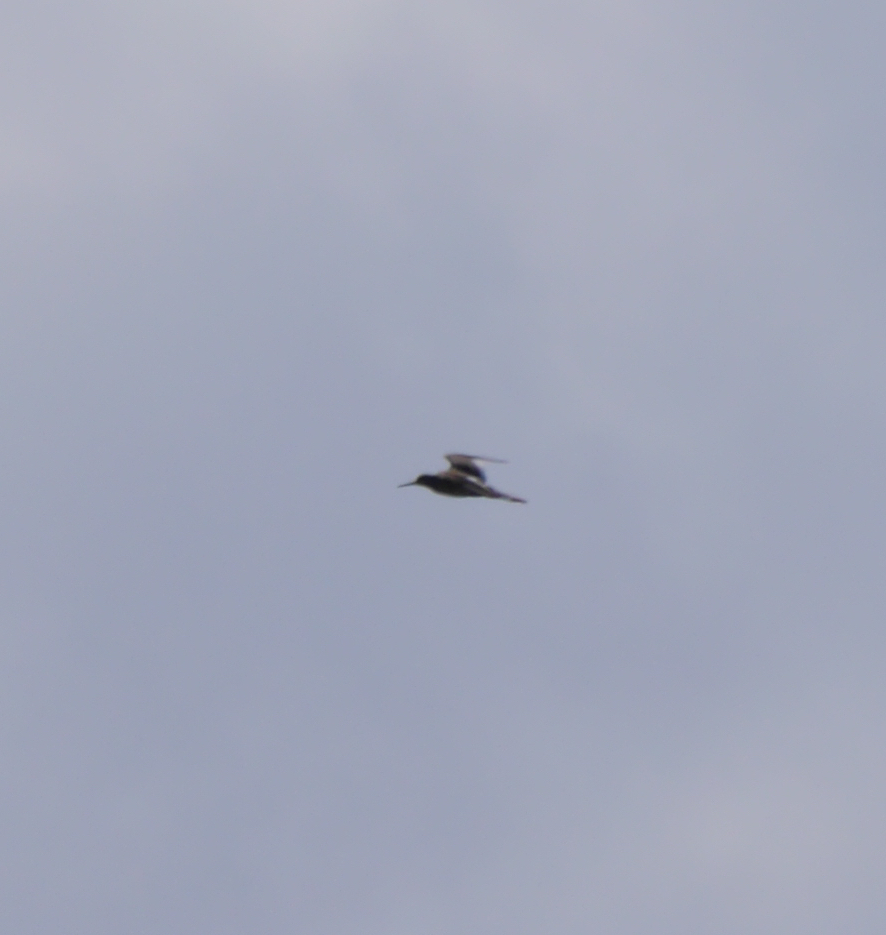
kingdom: Animalia
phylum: Chordata
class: Aves
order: Charadriiformes
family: Scolopacidae
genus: Tringa
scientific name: Tringa totanus
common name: Common redshank
